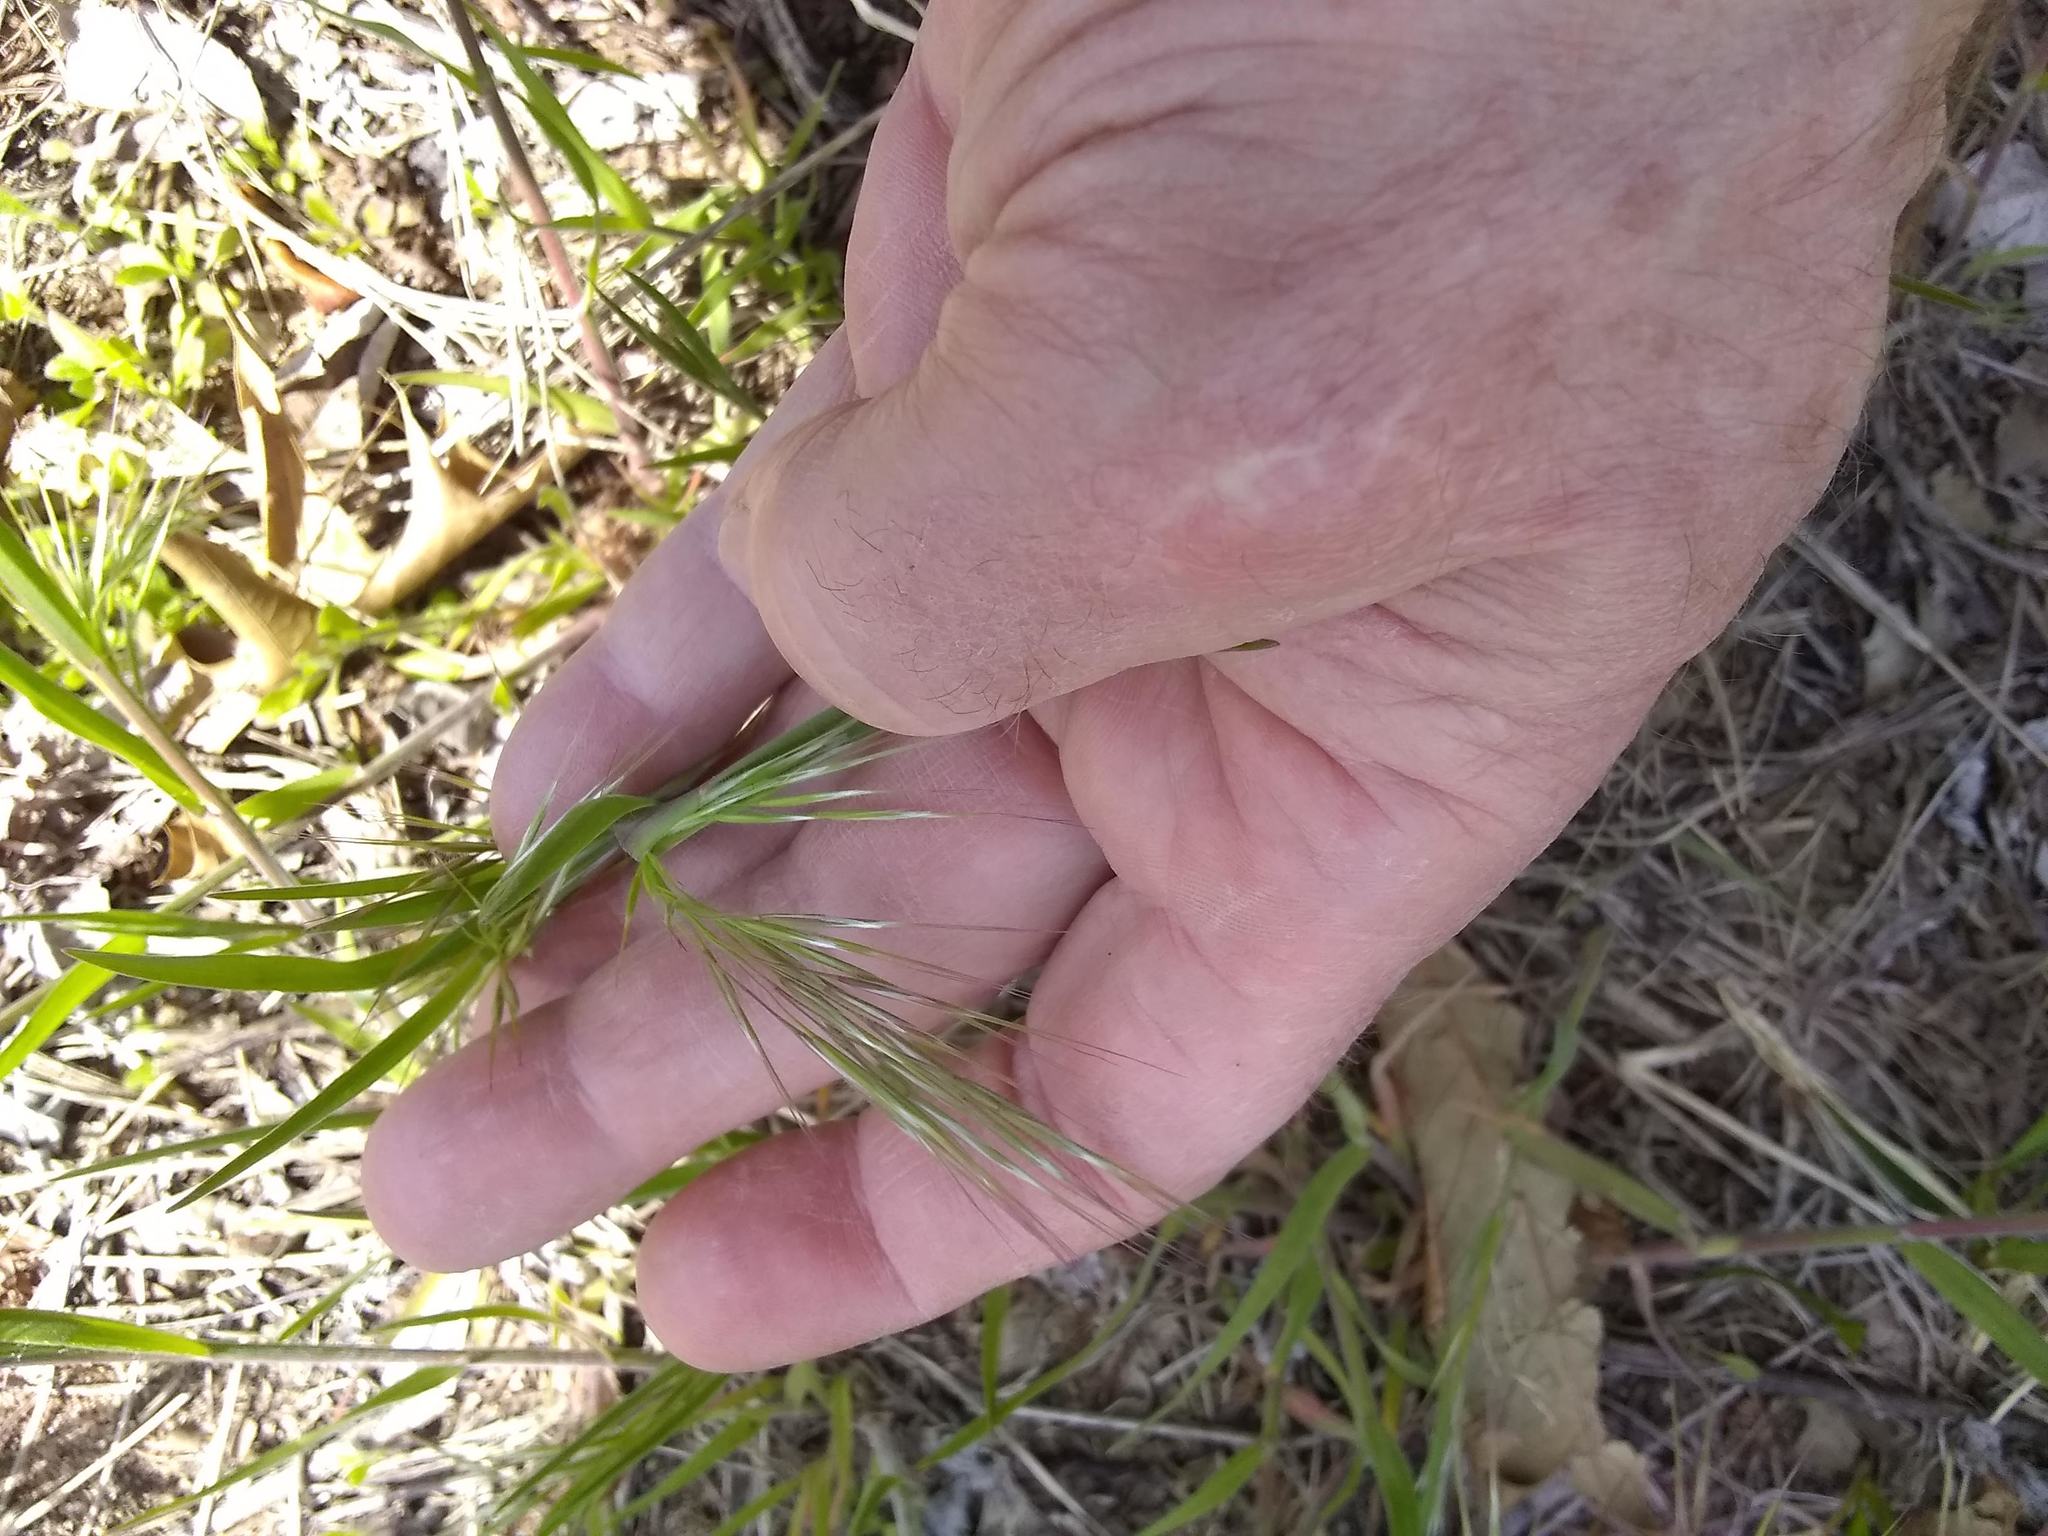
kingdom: Plantae
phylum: Tracheophyta
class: Liliopsida
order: Poales
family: Poaceae
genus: Bromus
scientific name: Bromus tectorum
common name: Cheatgrass
